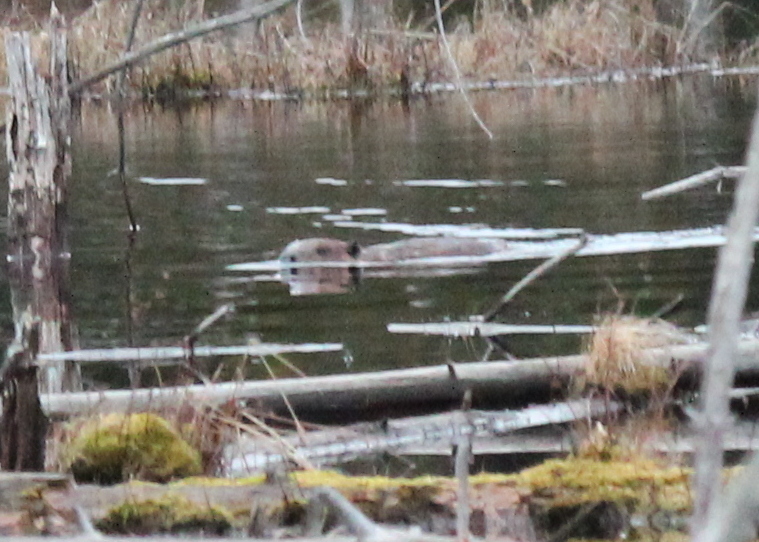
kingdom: Animalia
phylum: Chordata
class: Mammalia
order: Rodentia
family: Castoridae
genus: Castor
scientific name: Castor canadensis
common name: American beaver
